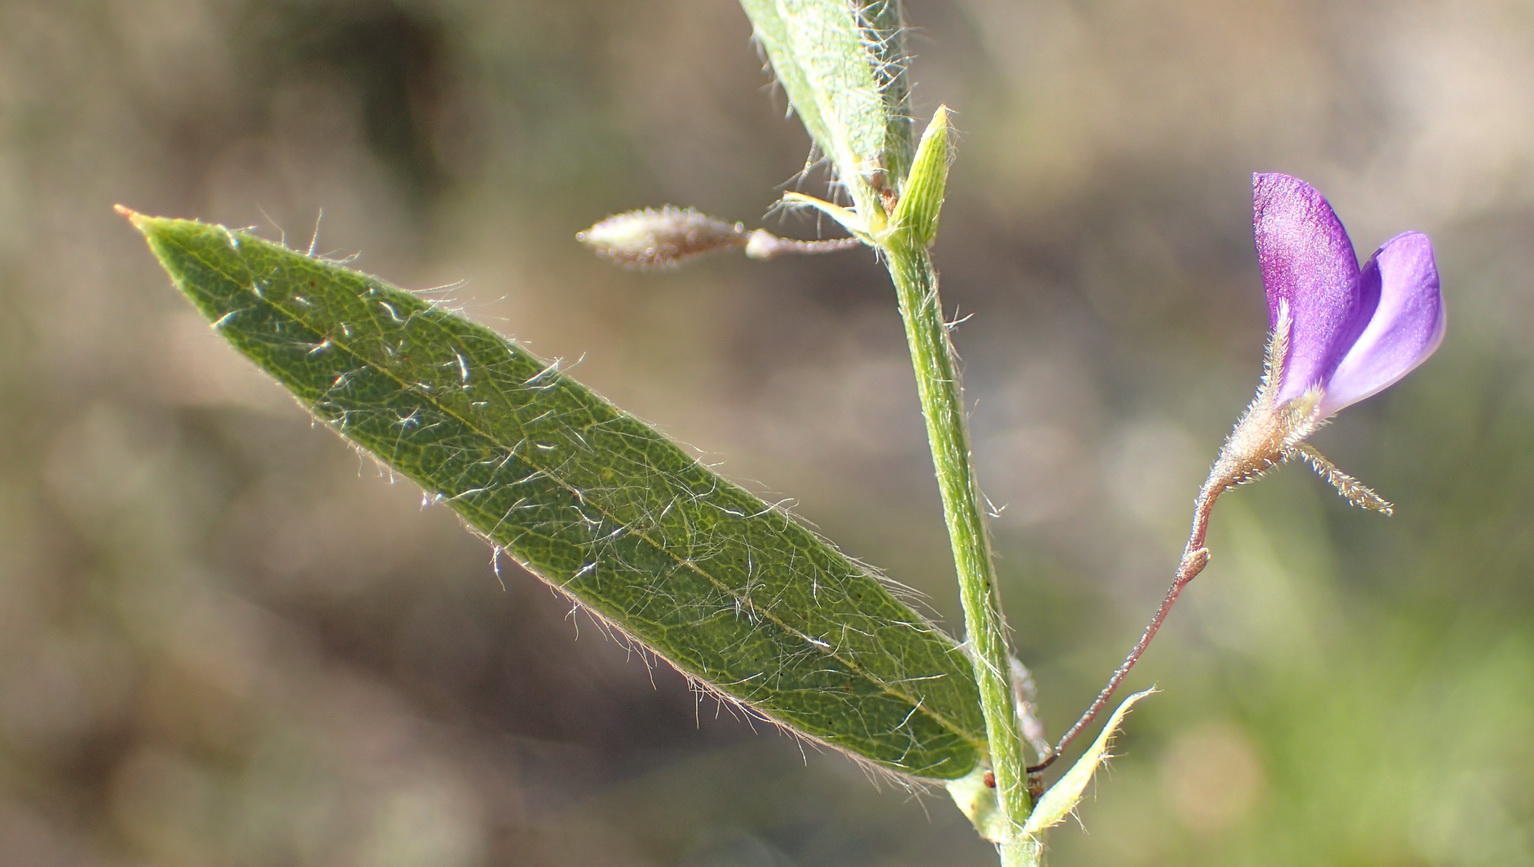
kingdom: Plantae
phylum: Tracheophyta
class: Magnoliopsida
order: Fabales
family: Fabaceae
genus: Psoralea
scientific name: Psoralea plauta
